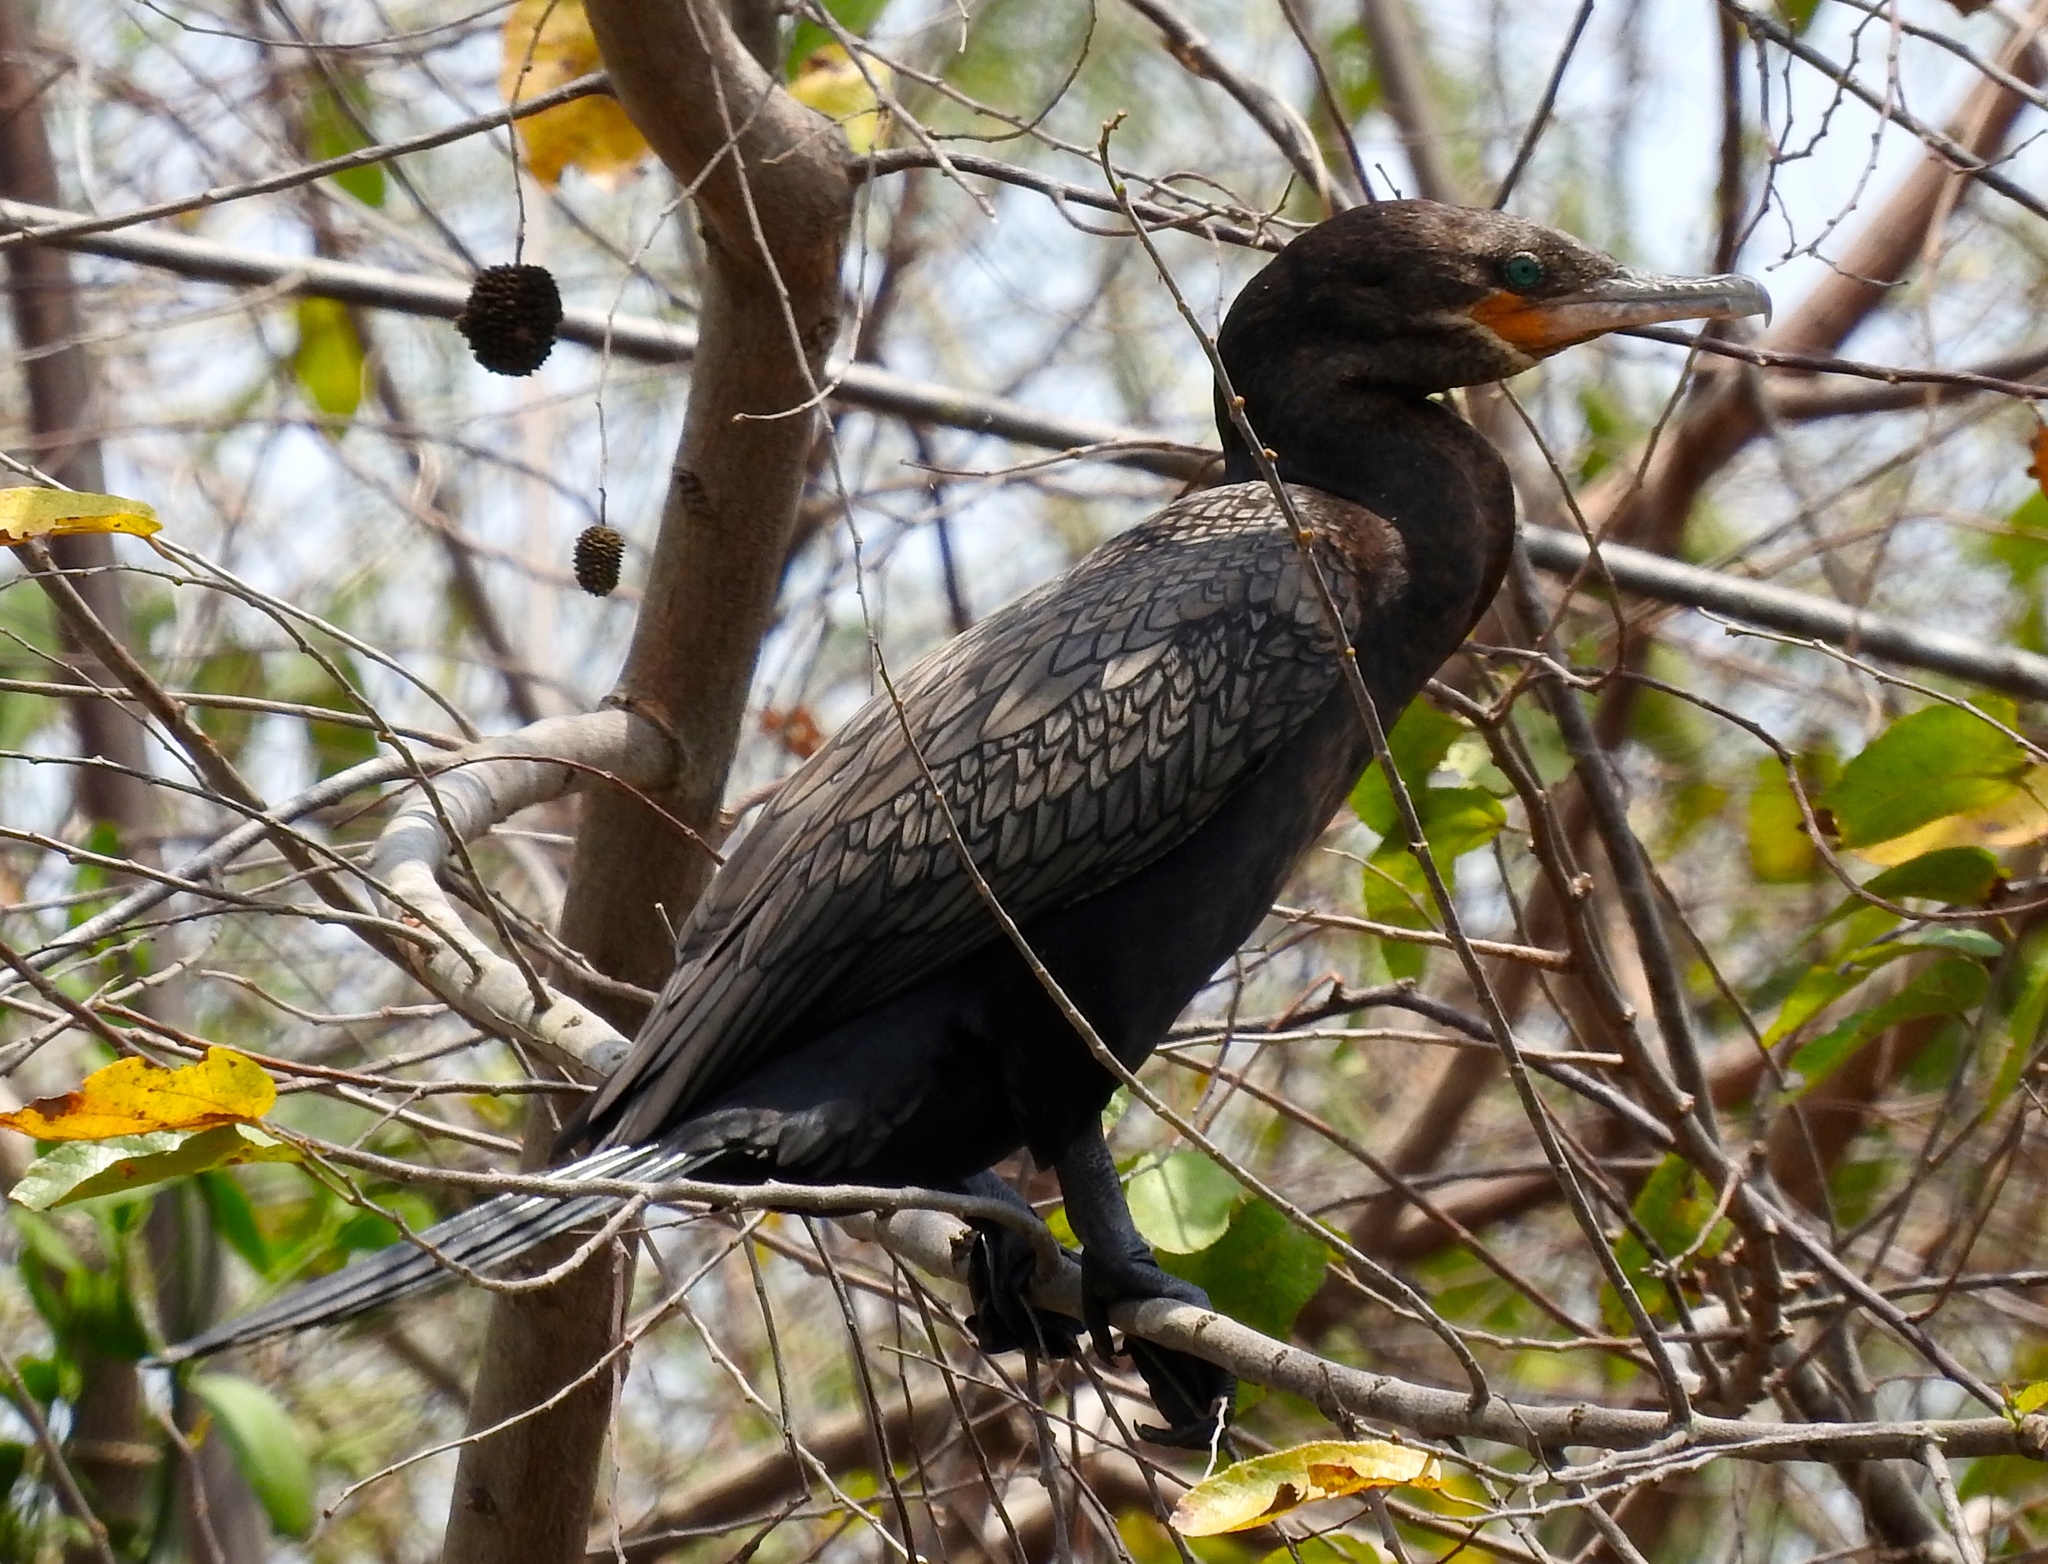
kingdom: Animalia
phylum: Chordata
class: Aves
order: Suliformes
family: Phalacrocoracidae
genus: Phalacrocorax
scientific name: Phalacrocorax brasilianus
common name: Neotropic cormorant
